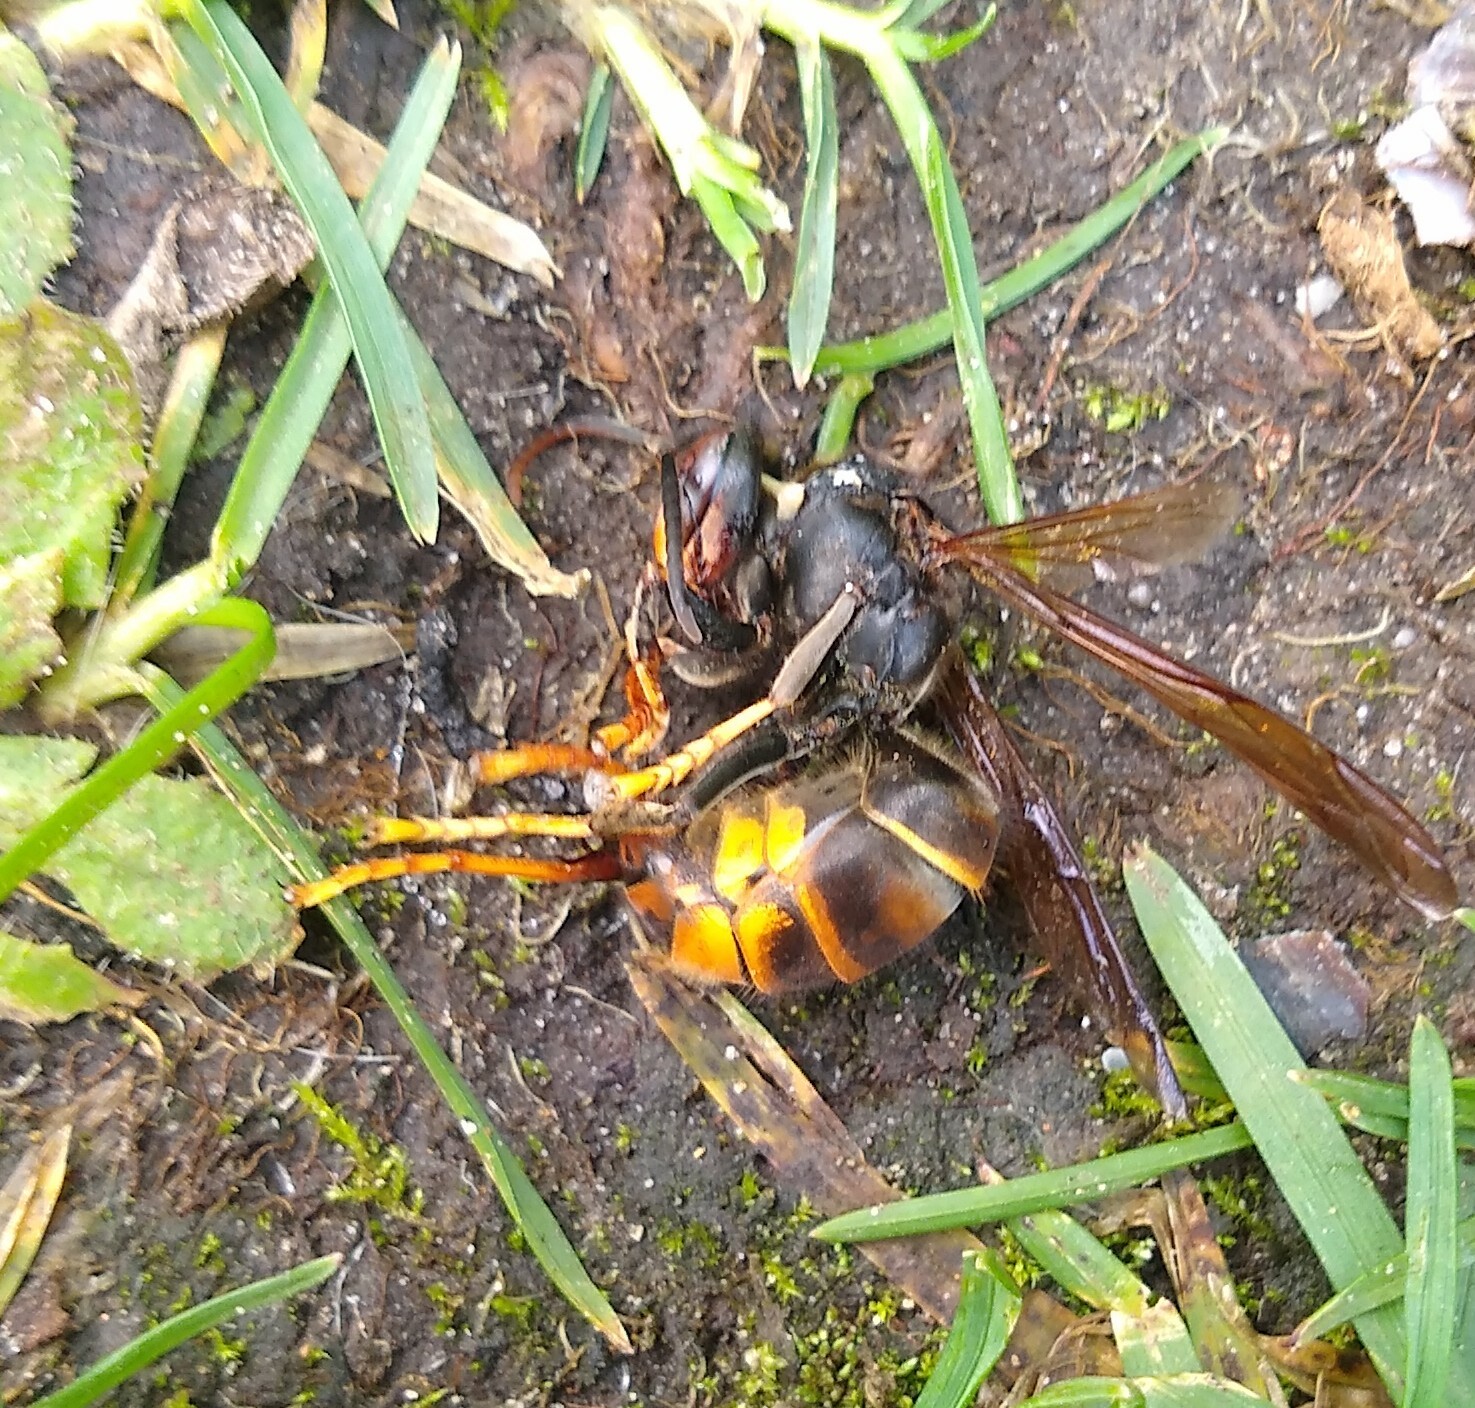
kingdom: Animalia
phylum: Arthropoda
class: Insecta
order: Hymenoptera
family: Vespidae
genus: Vespa
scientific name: Vespa velutina
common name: Asian hornet
